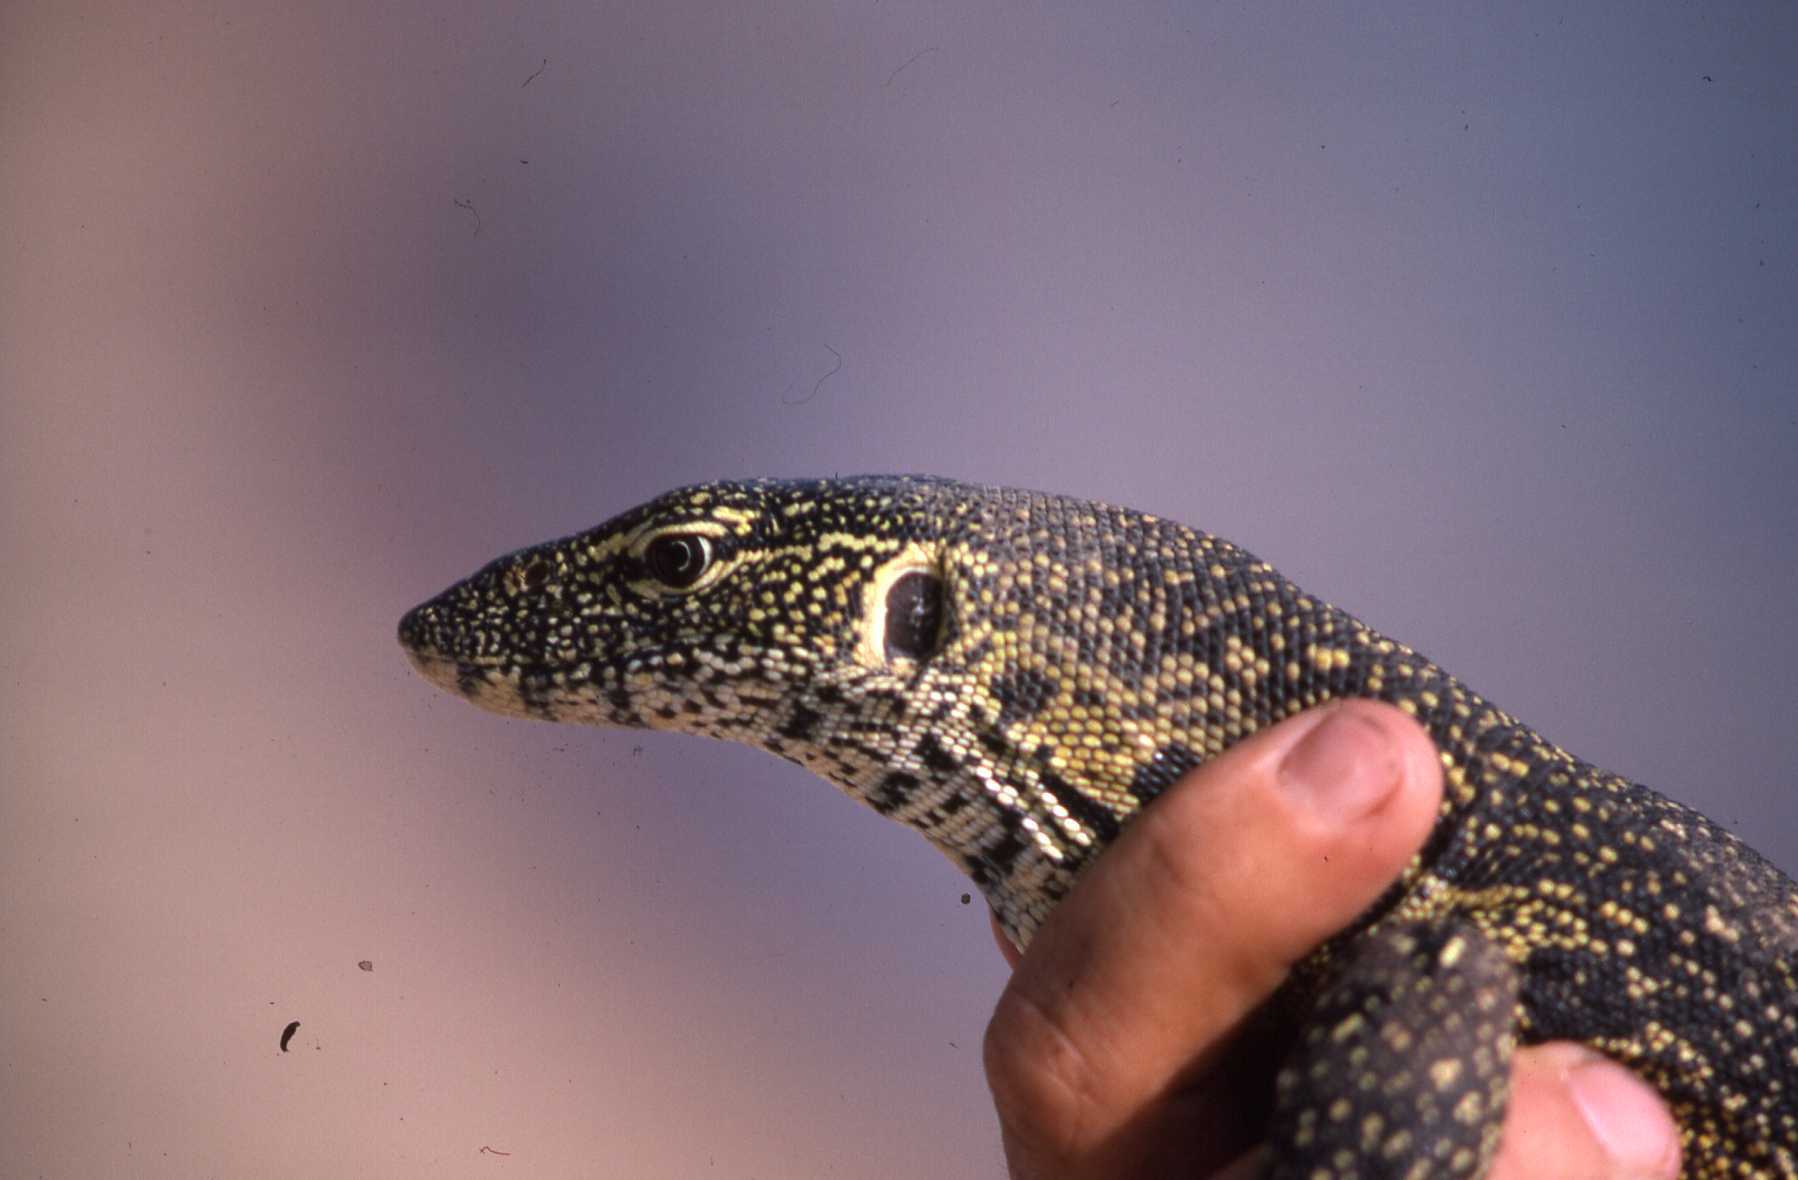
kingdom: Animalia
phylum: Chordata
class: Squamata
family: Varanidae
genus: Varanus
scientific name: Varanus niloticus
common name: Nile monitor
